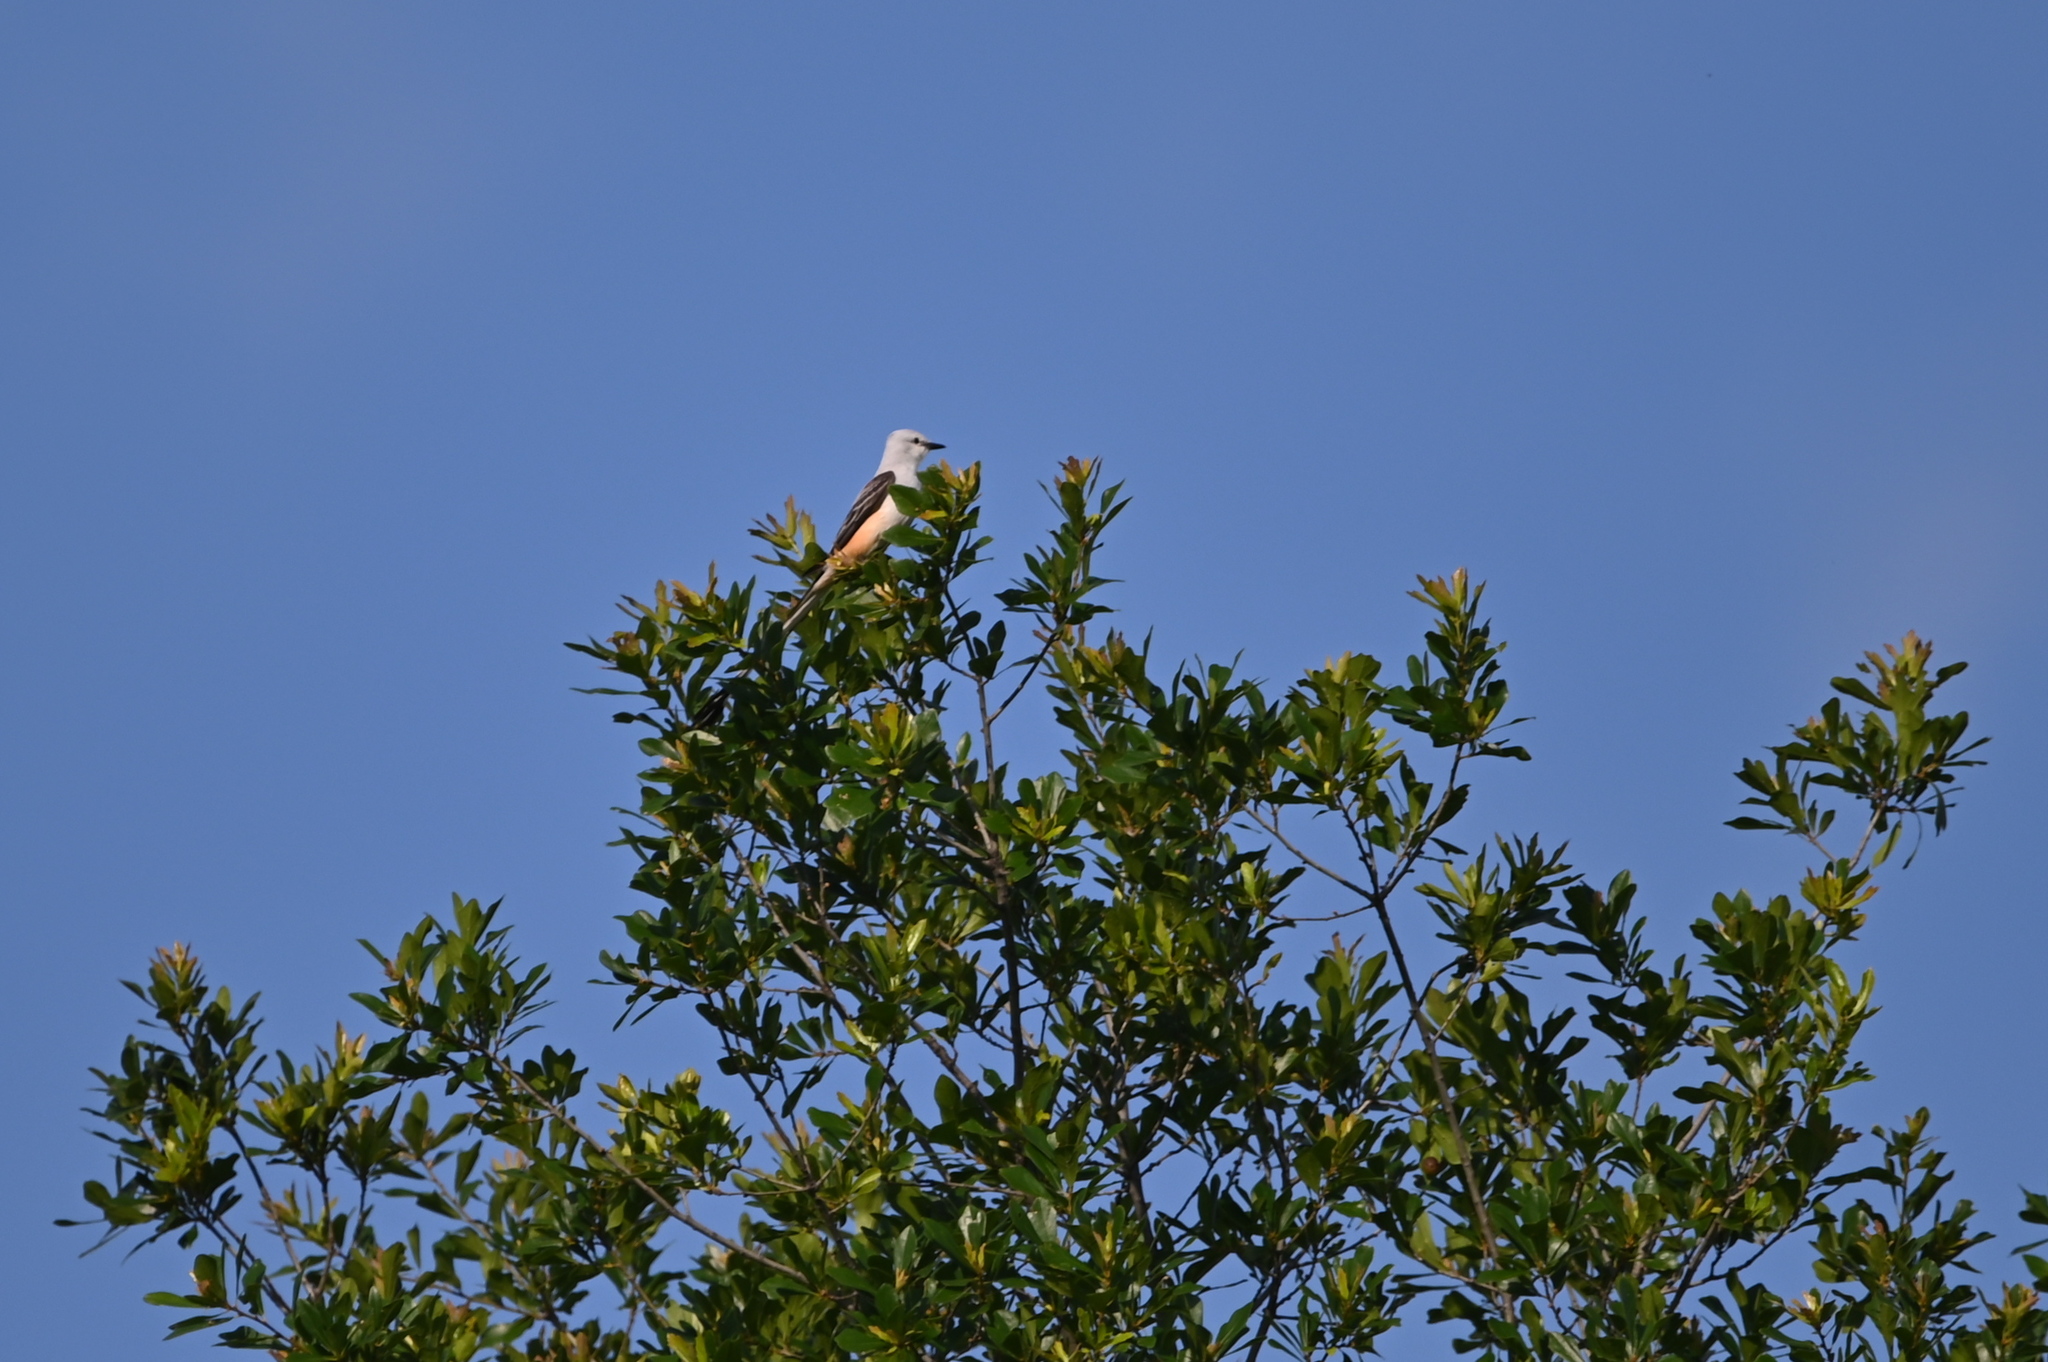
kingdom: Animalia
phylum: Chordata
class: Aves
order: Passeriformes
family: Tyrannidae
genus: Tyrannus
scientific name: Tyrannus forficatus
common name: Scissor-tailed flycatcher
